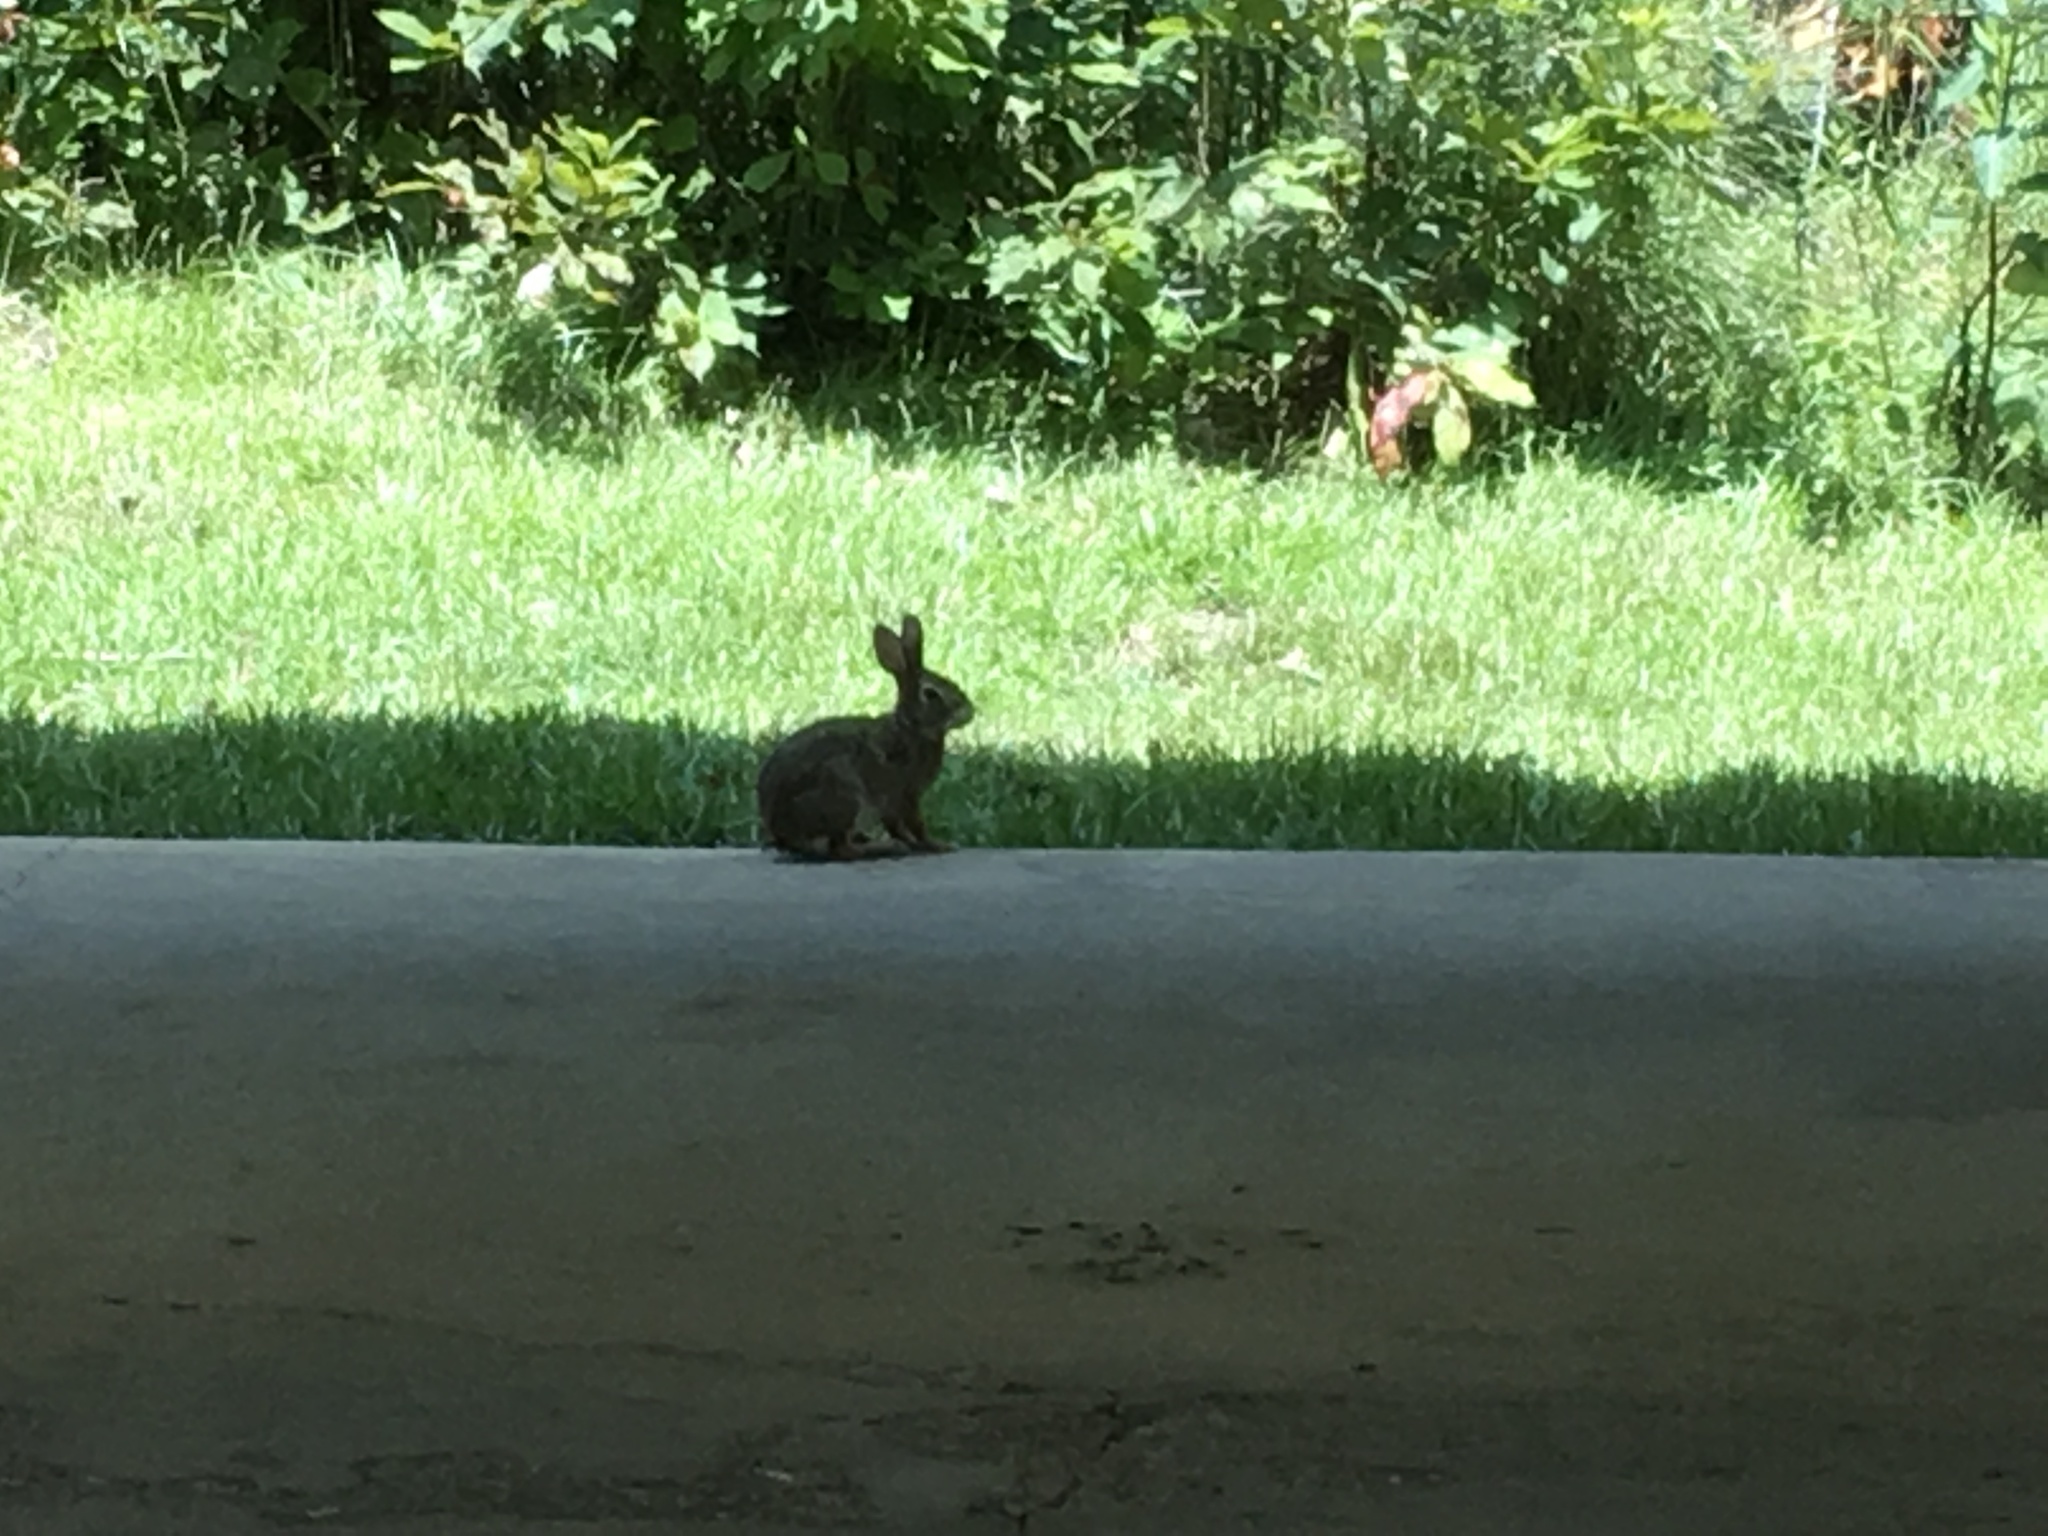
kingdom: Animalia
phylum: Chordata
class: Mammalia
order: Lagomorpha
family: Leporidae
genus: Sylvilagus
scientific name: Sylvilagus floridanus
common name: Eastern cottontail
